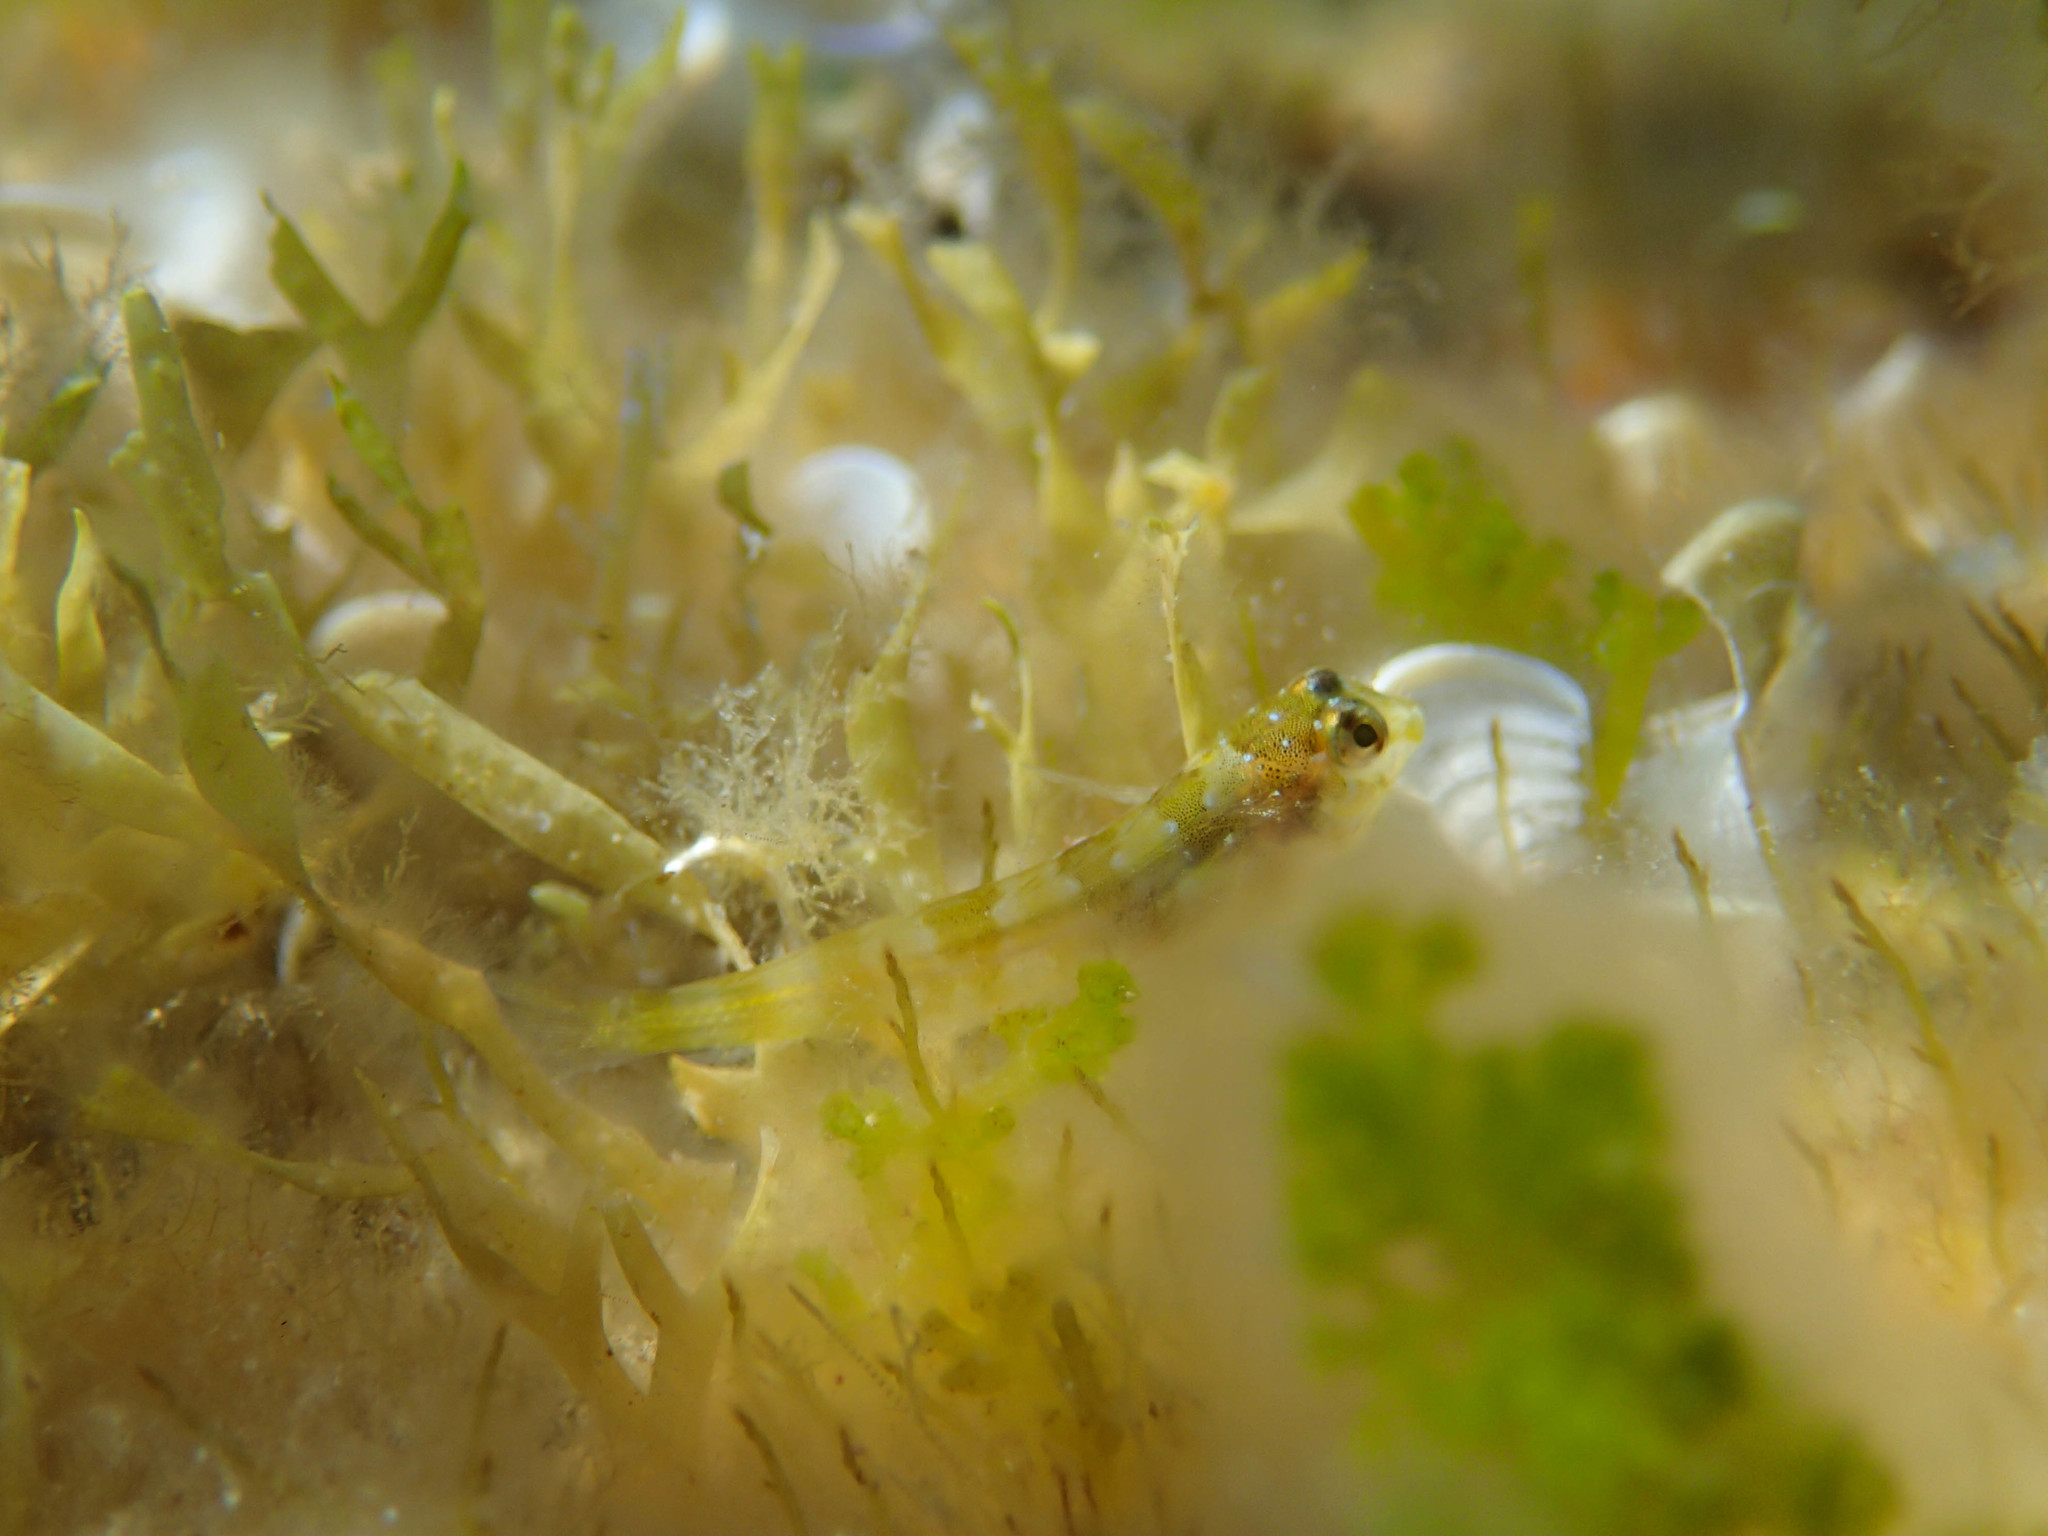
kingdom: Animalia
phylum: Chordata
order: Perciformes
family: Blenniidae
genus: Lipophrys
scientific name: Lipophrys trigloides
